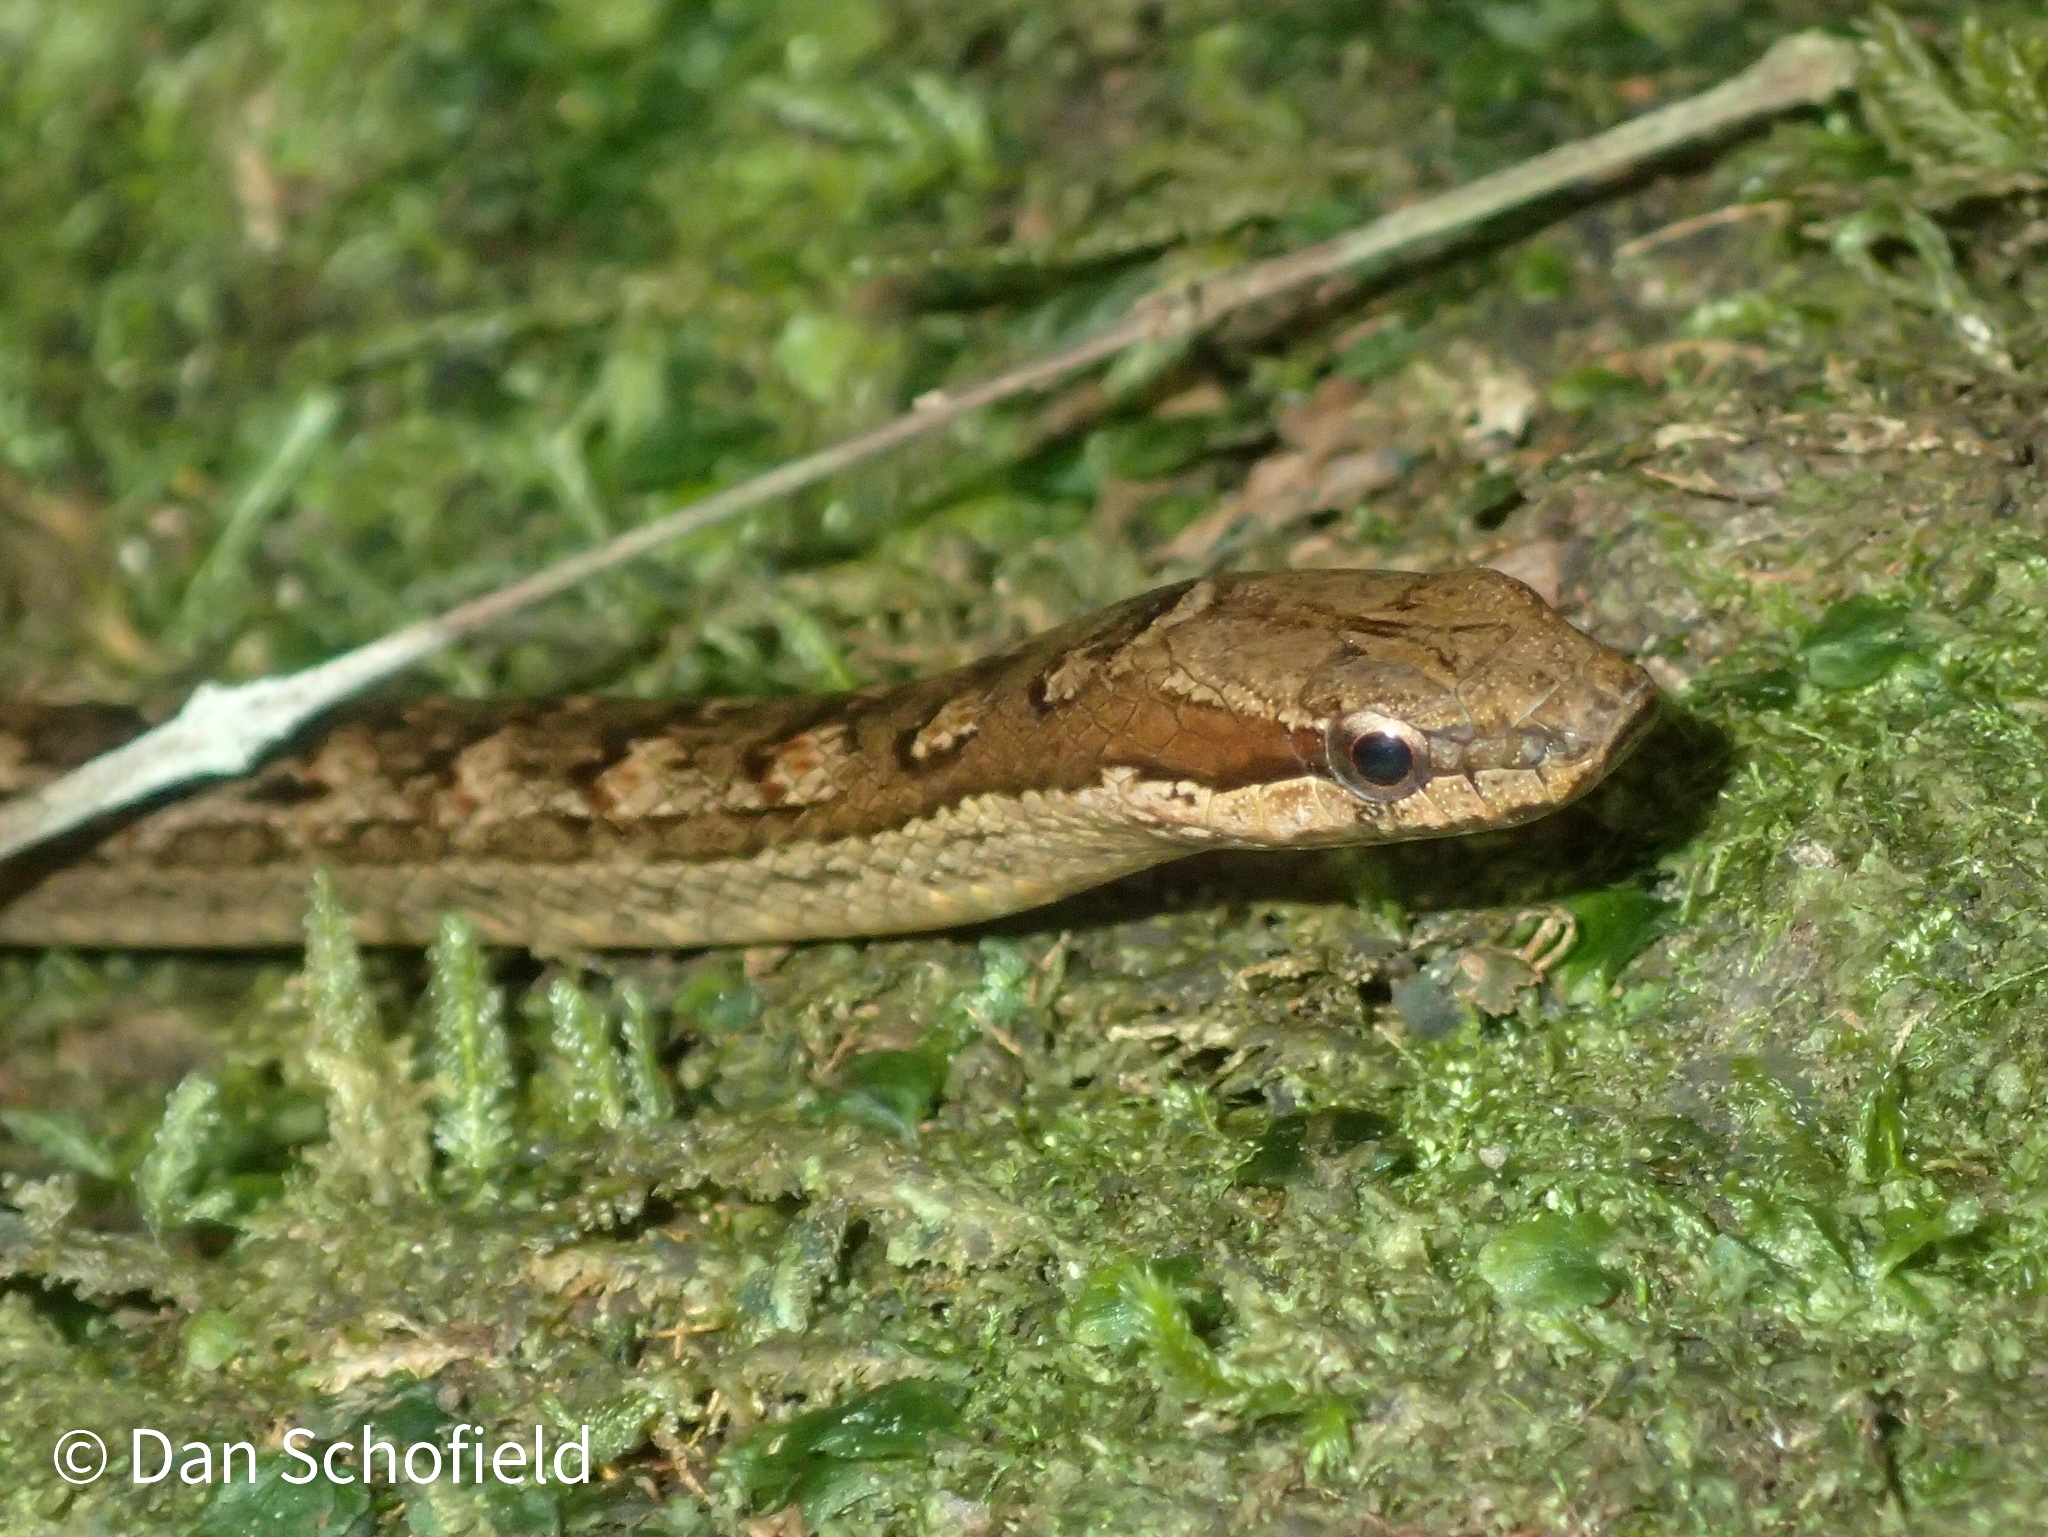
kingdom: Animalia
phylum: Chordata
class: Squamata
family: Colubridae
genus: Alsophis
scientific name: Alsophis rufiventris
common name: Orange-bellied racer
